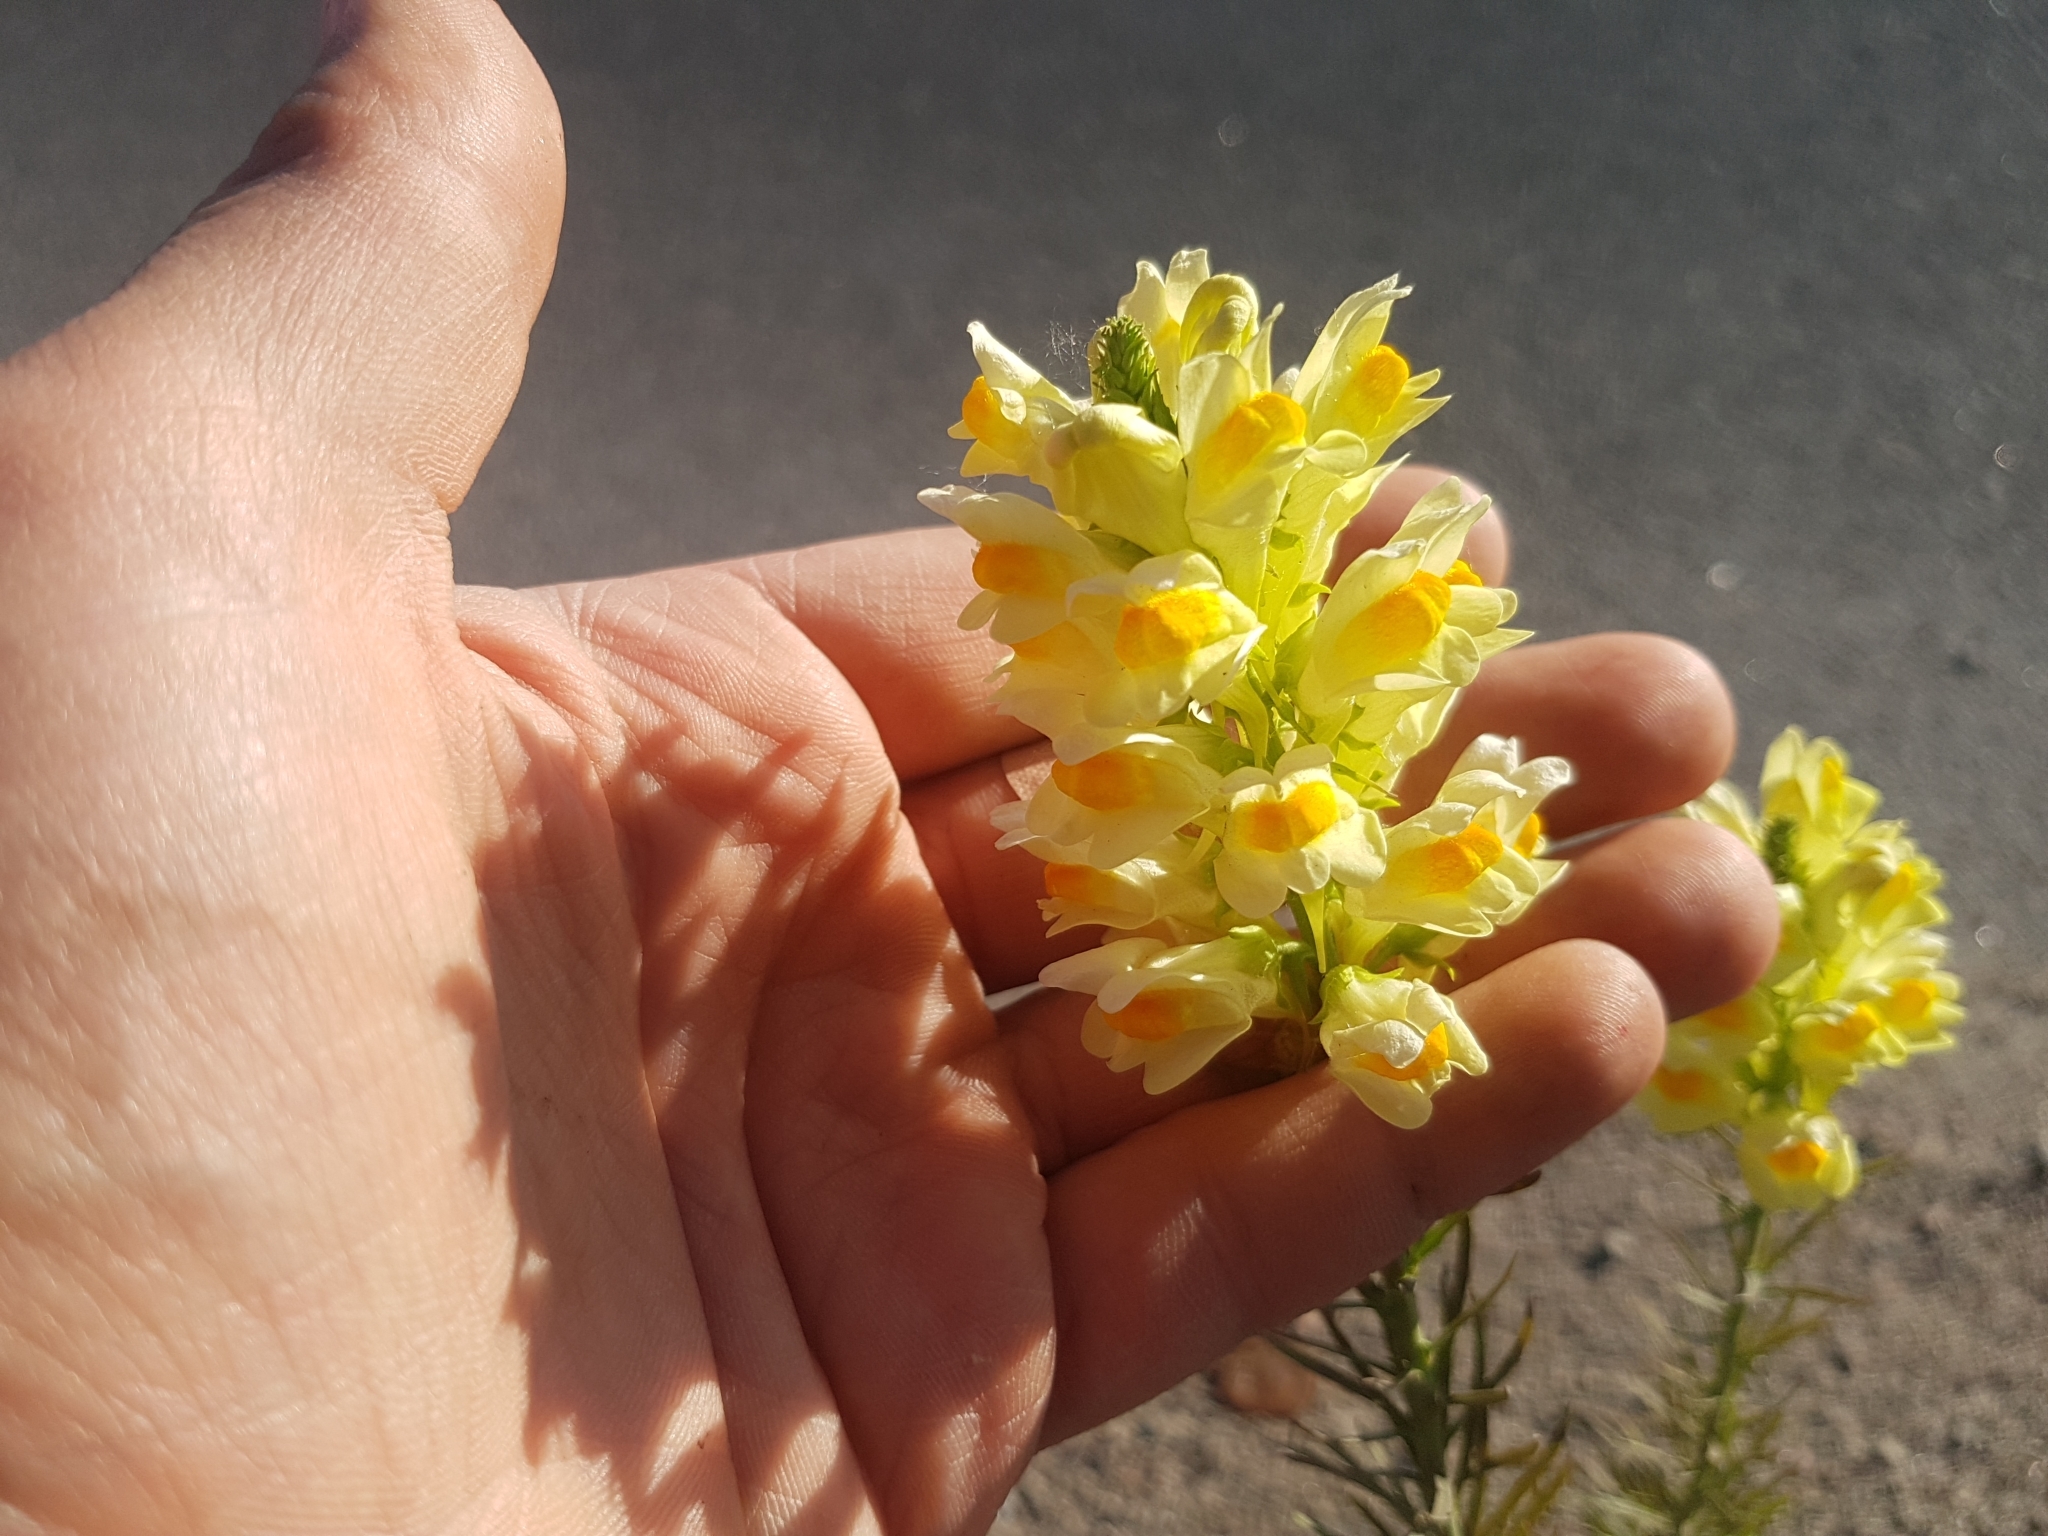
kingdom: Plantae
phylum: Tracheophyta
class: Magnoliopsida
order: Lamiales
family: Plantaginaceae
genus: Linaria
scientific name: Linaria vulgaris
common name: Butter and eggs
